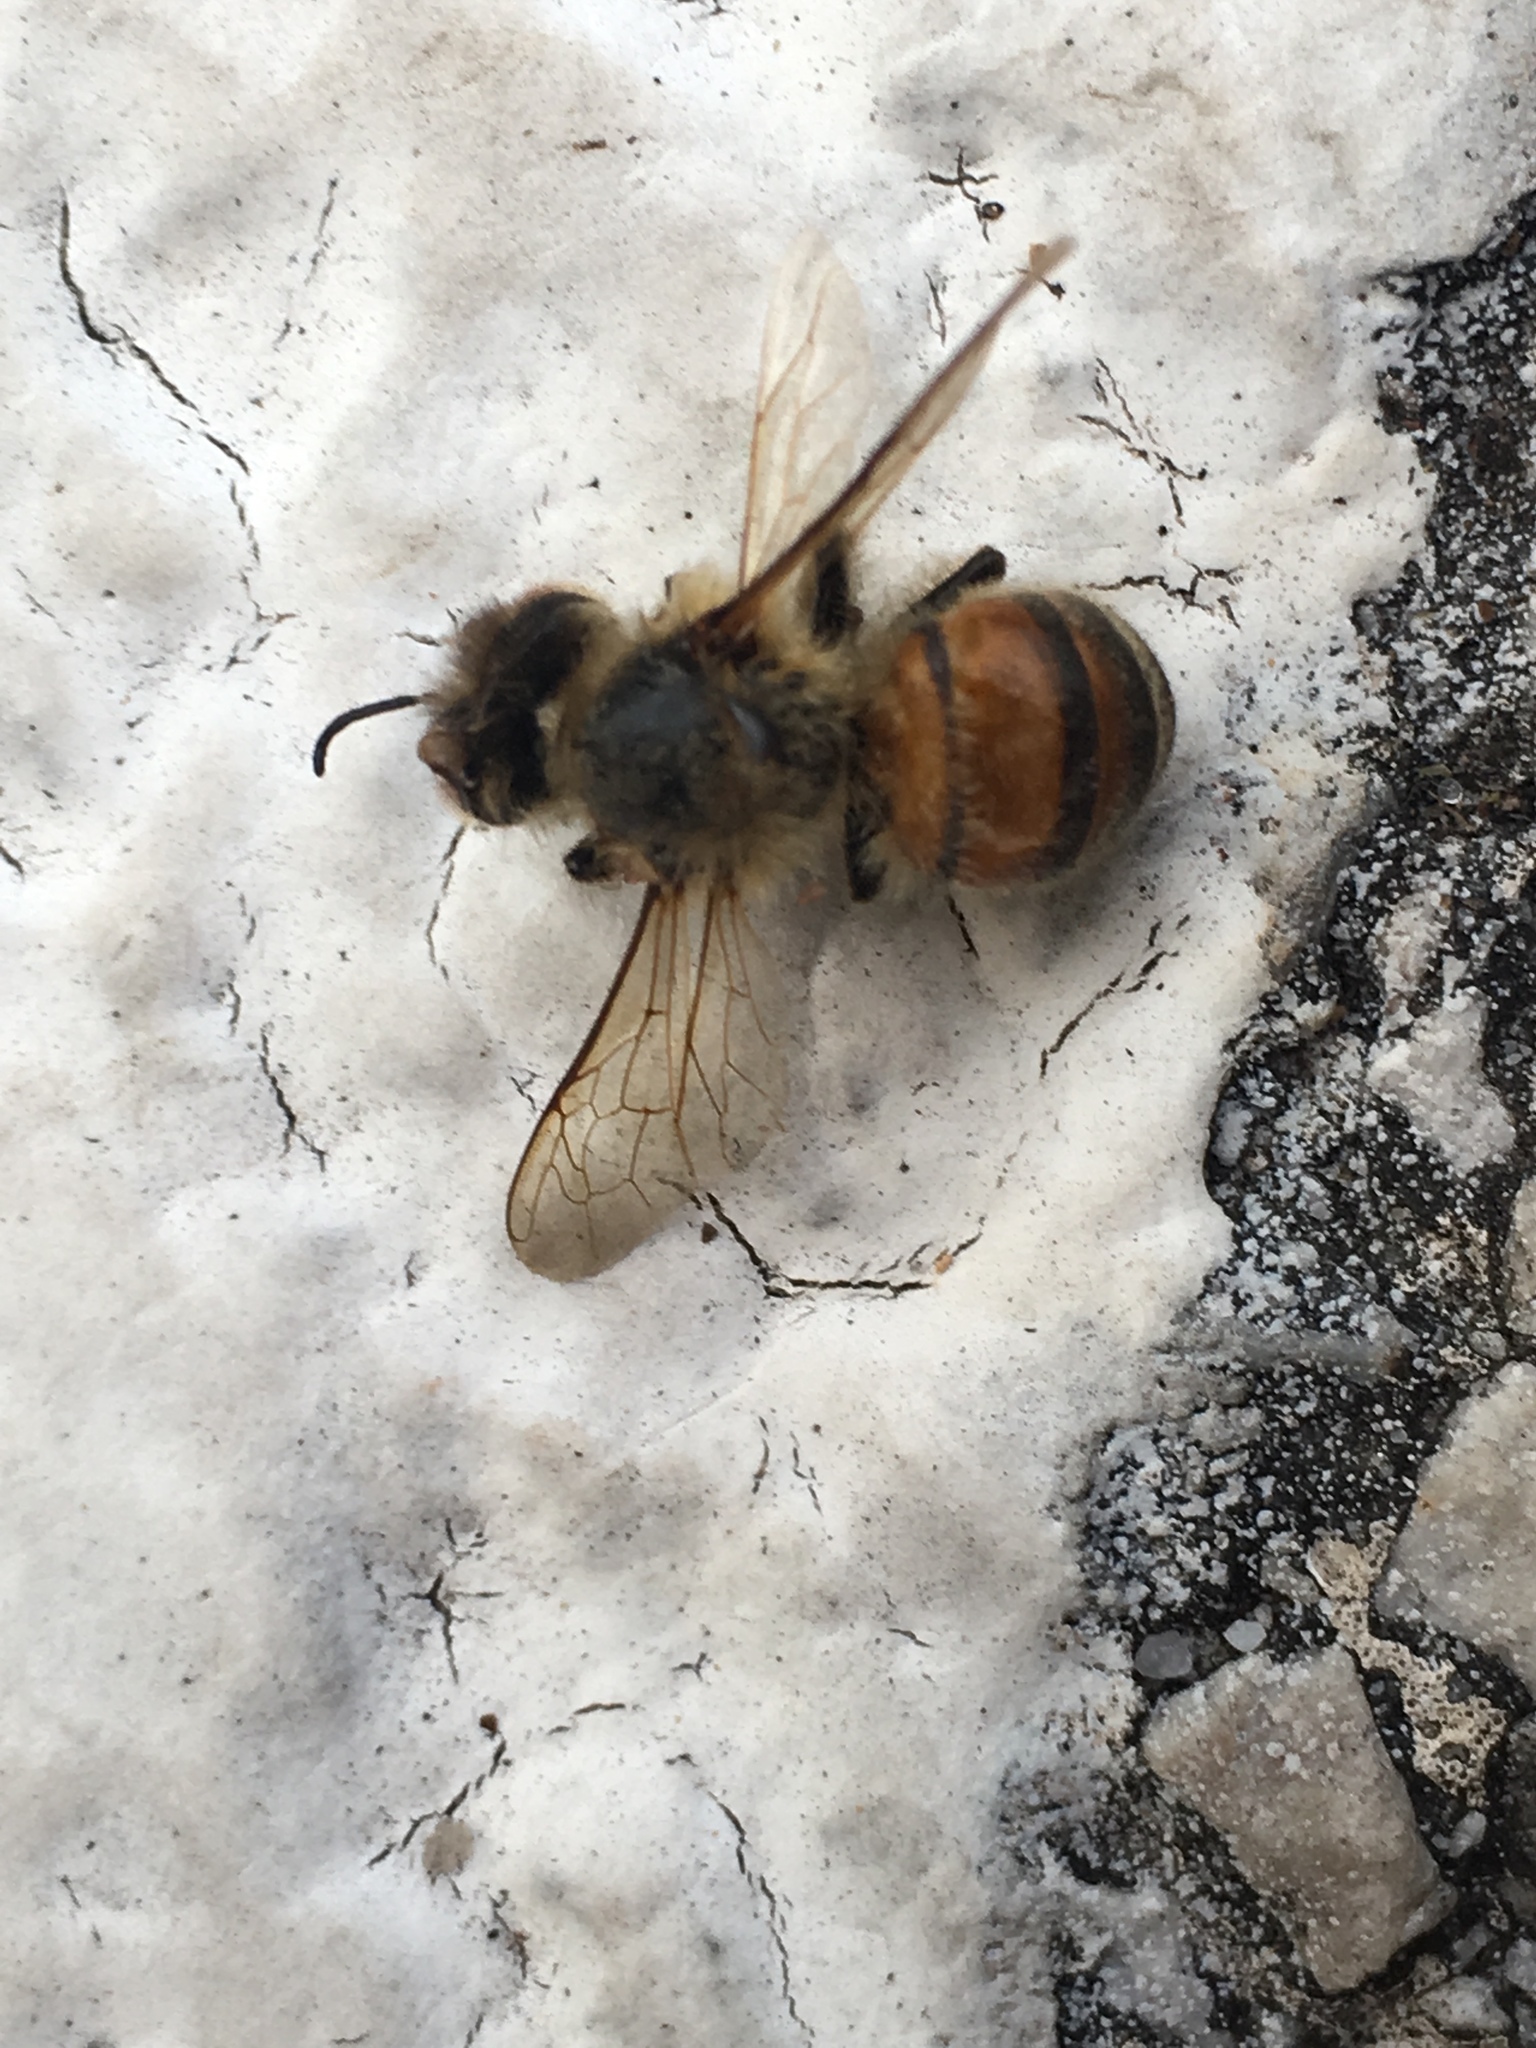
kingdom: Animalia
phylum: Arthropoda
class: Insecta
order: Hymenoptera
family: Apidae
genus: Apis
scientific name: Apis mellifera
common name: Honey bee
